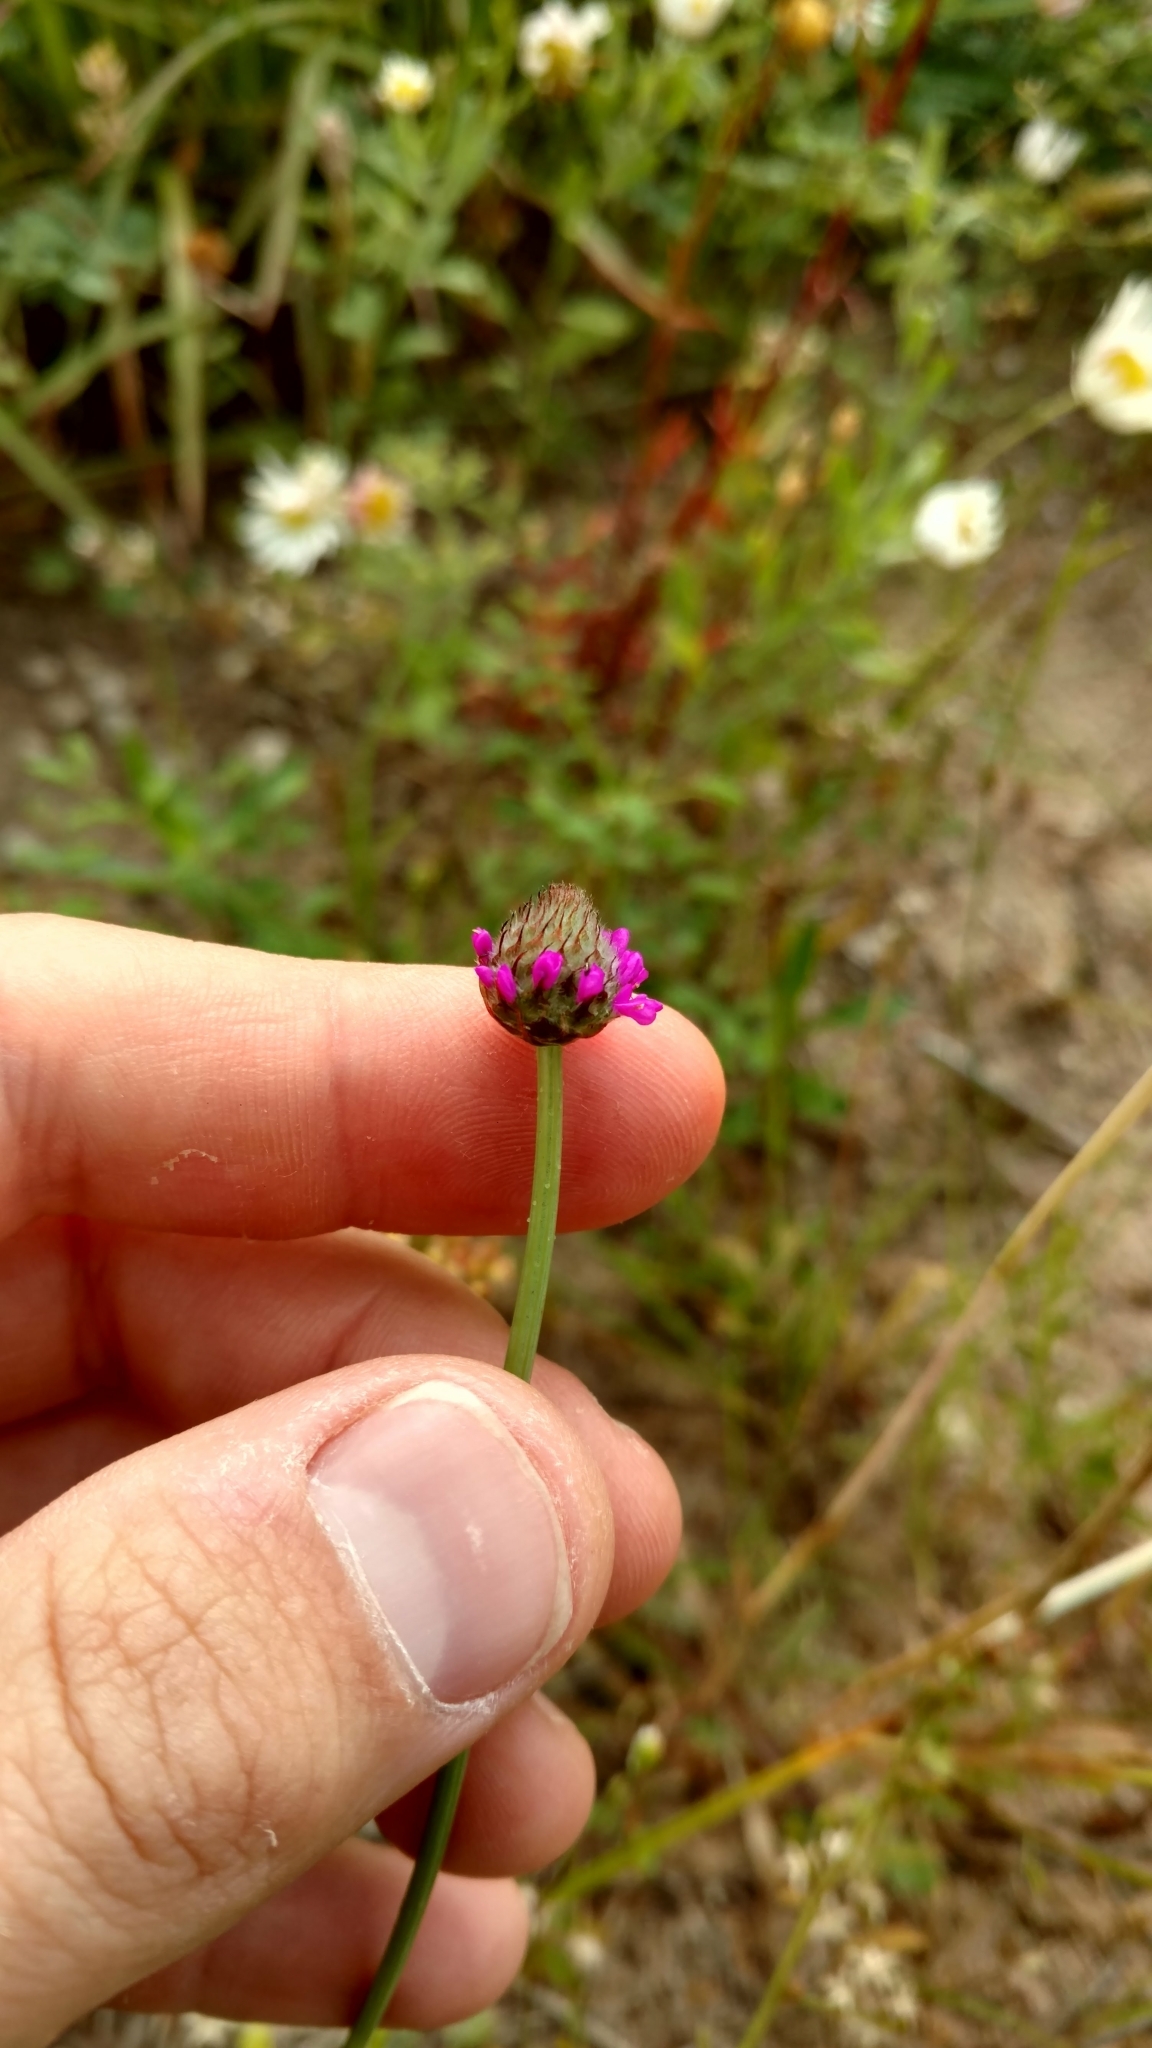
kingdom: Plantae
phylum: Tracheophyta
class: Magnoliopsida
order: Fabales
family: Fabaceae
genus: Dalea
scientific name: Dalea emarginata
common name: Wedgeleaf prairie clover
